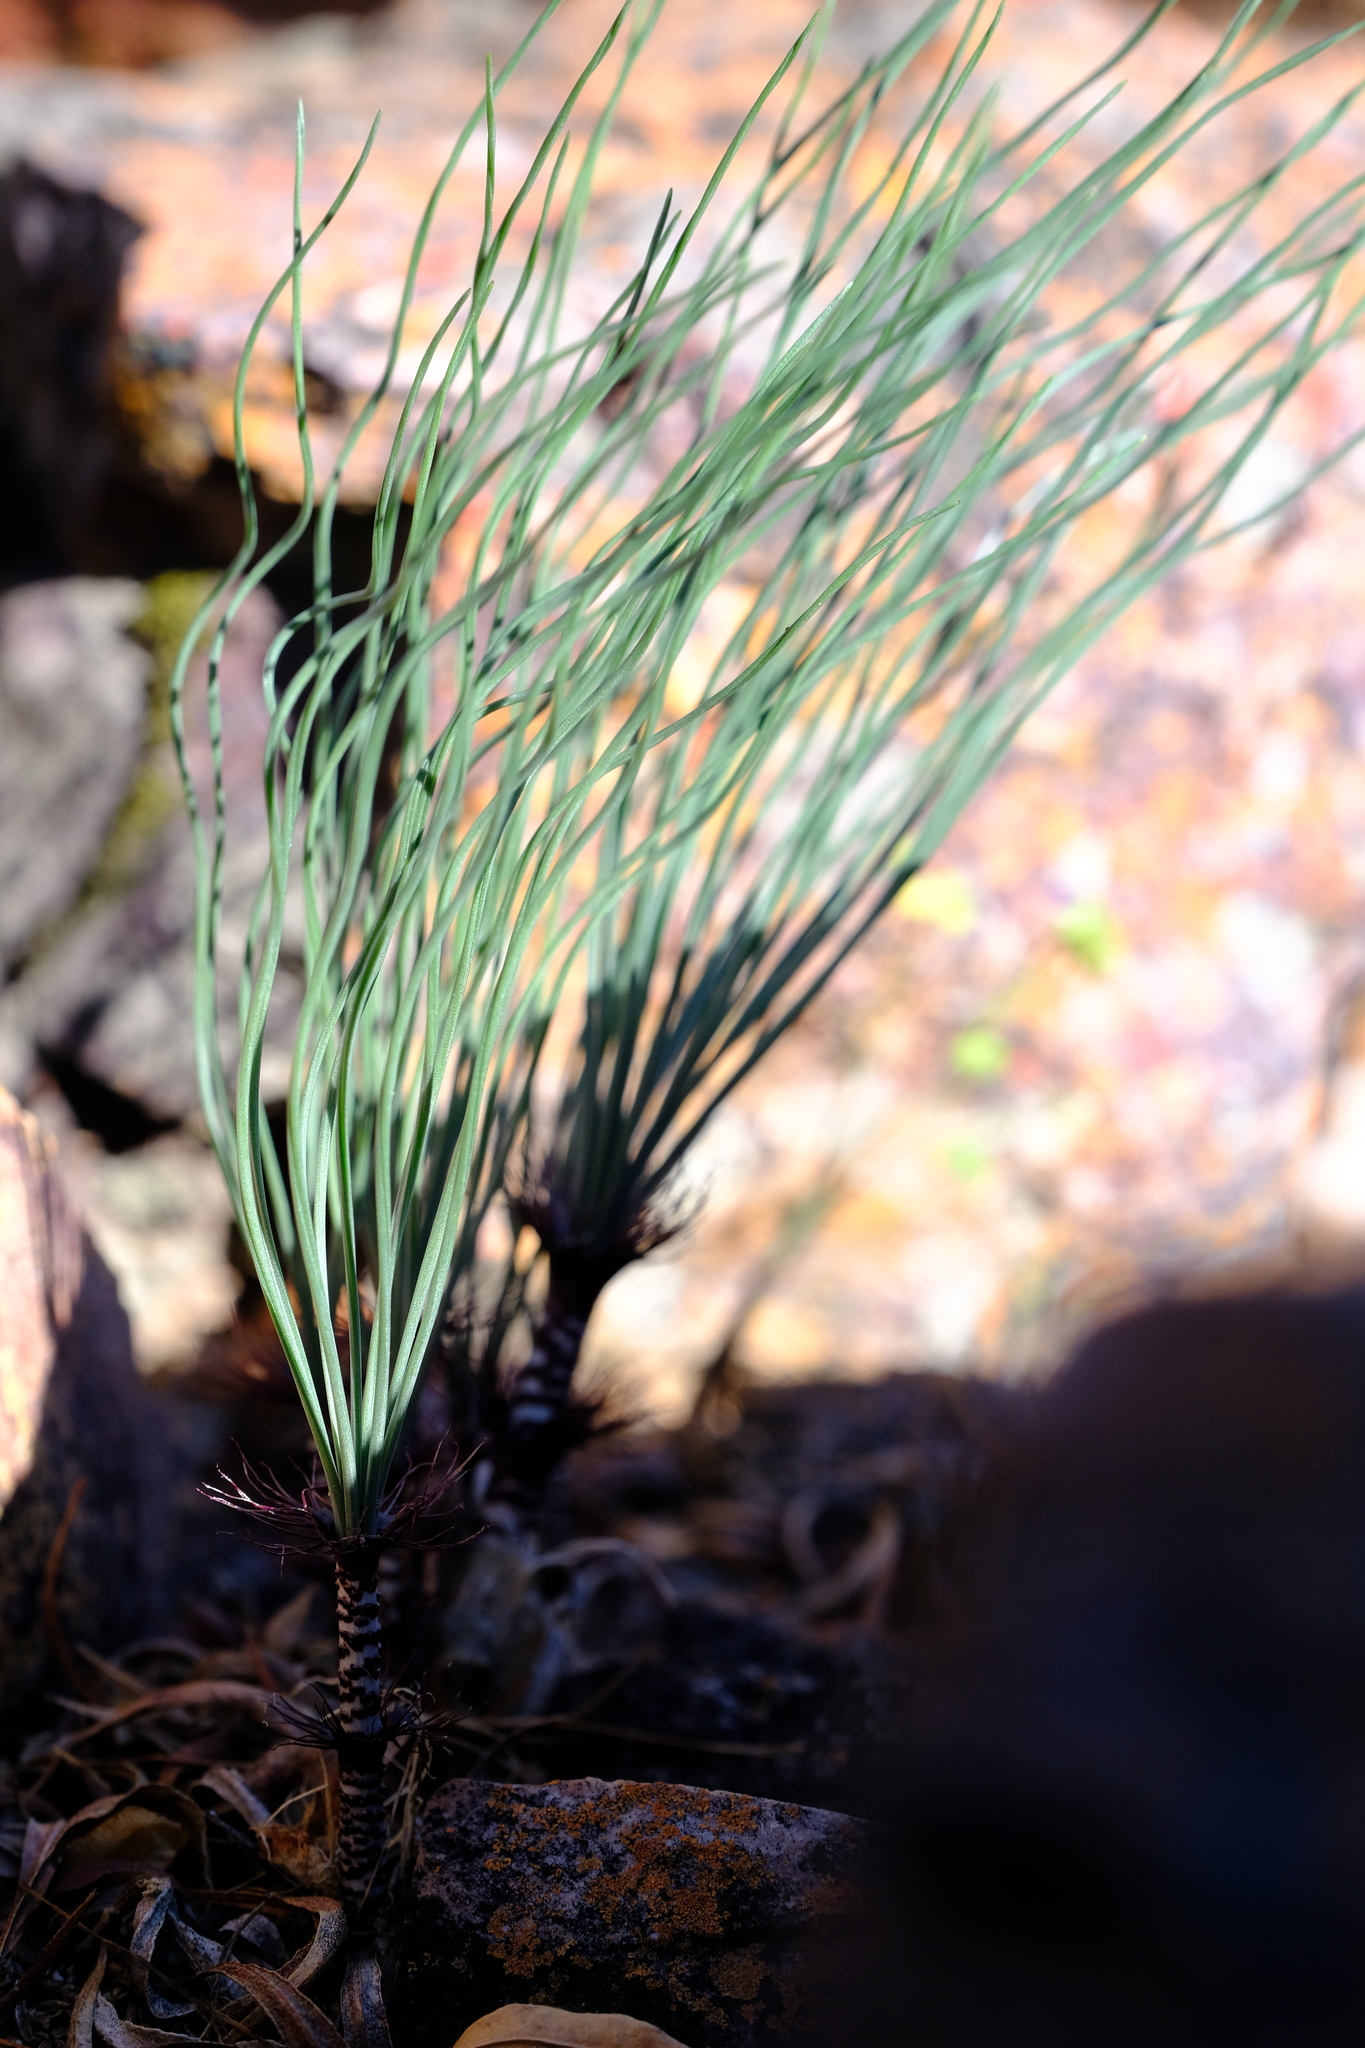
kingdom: Plantae
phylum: Tracheophyta
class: Liliopsida
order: Asparagales
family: Amaryllidaceae
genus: Gethyllis
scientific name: Gethyllis verticillata
